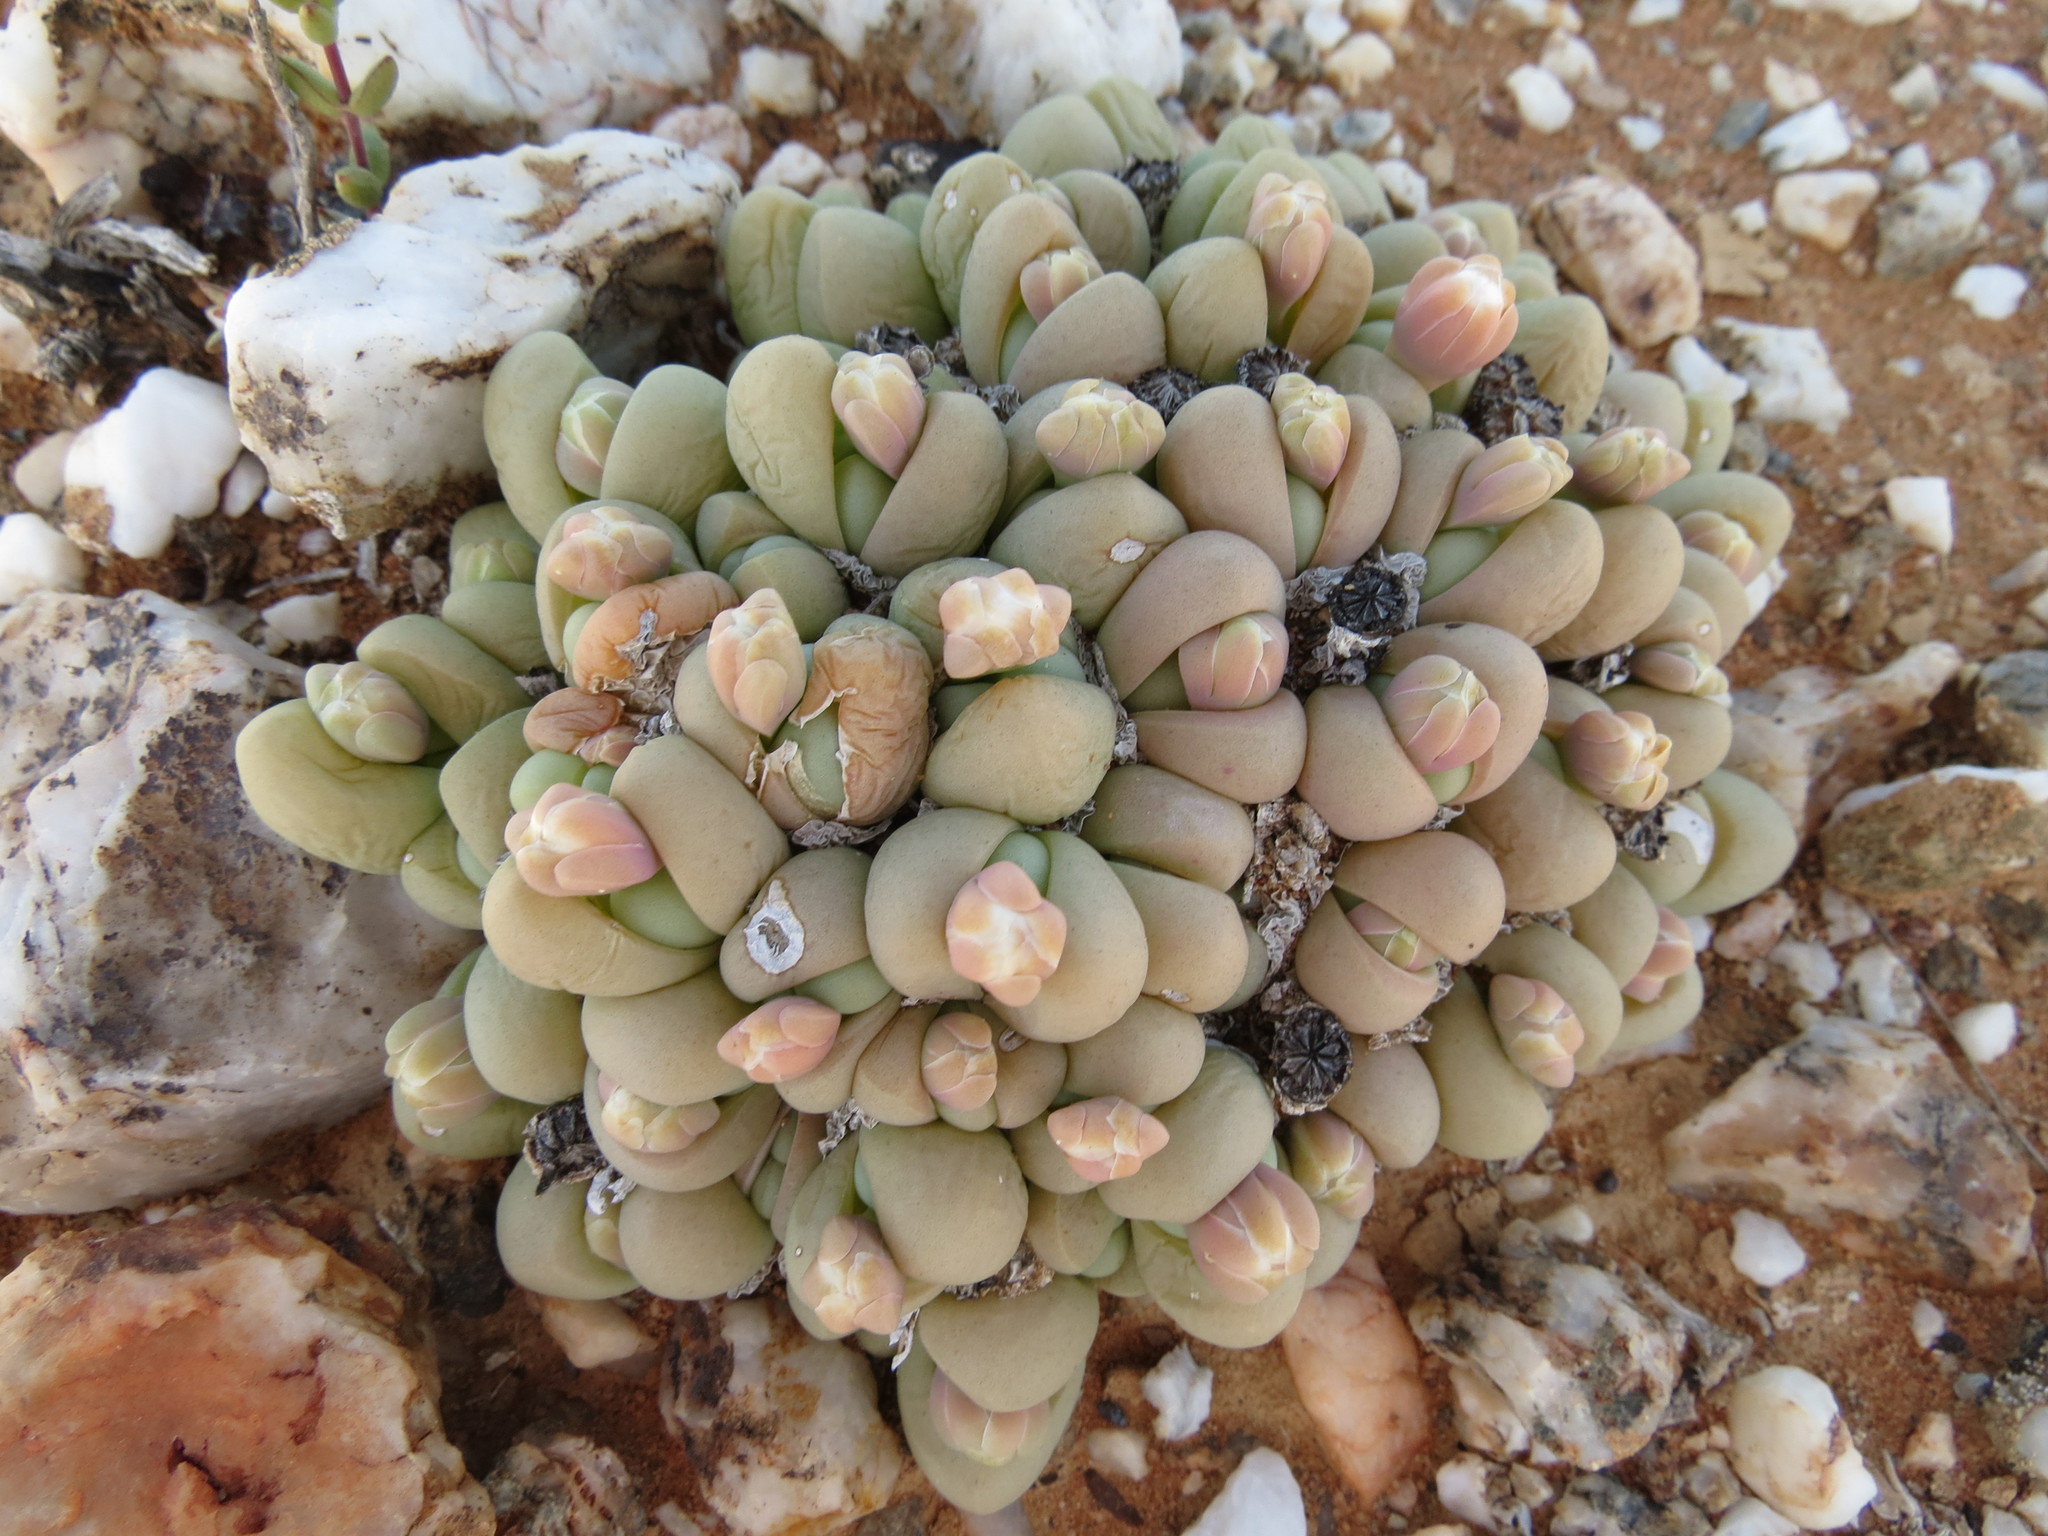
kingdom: Plantae
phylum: Tracheophyta
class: Magnoliopsida
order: Caryophyllales
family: Aizoaceae
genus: Gibbaeum
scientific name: Gibbaeum heathii
